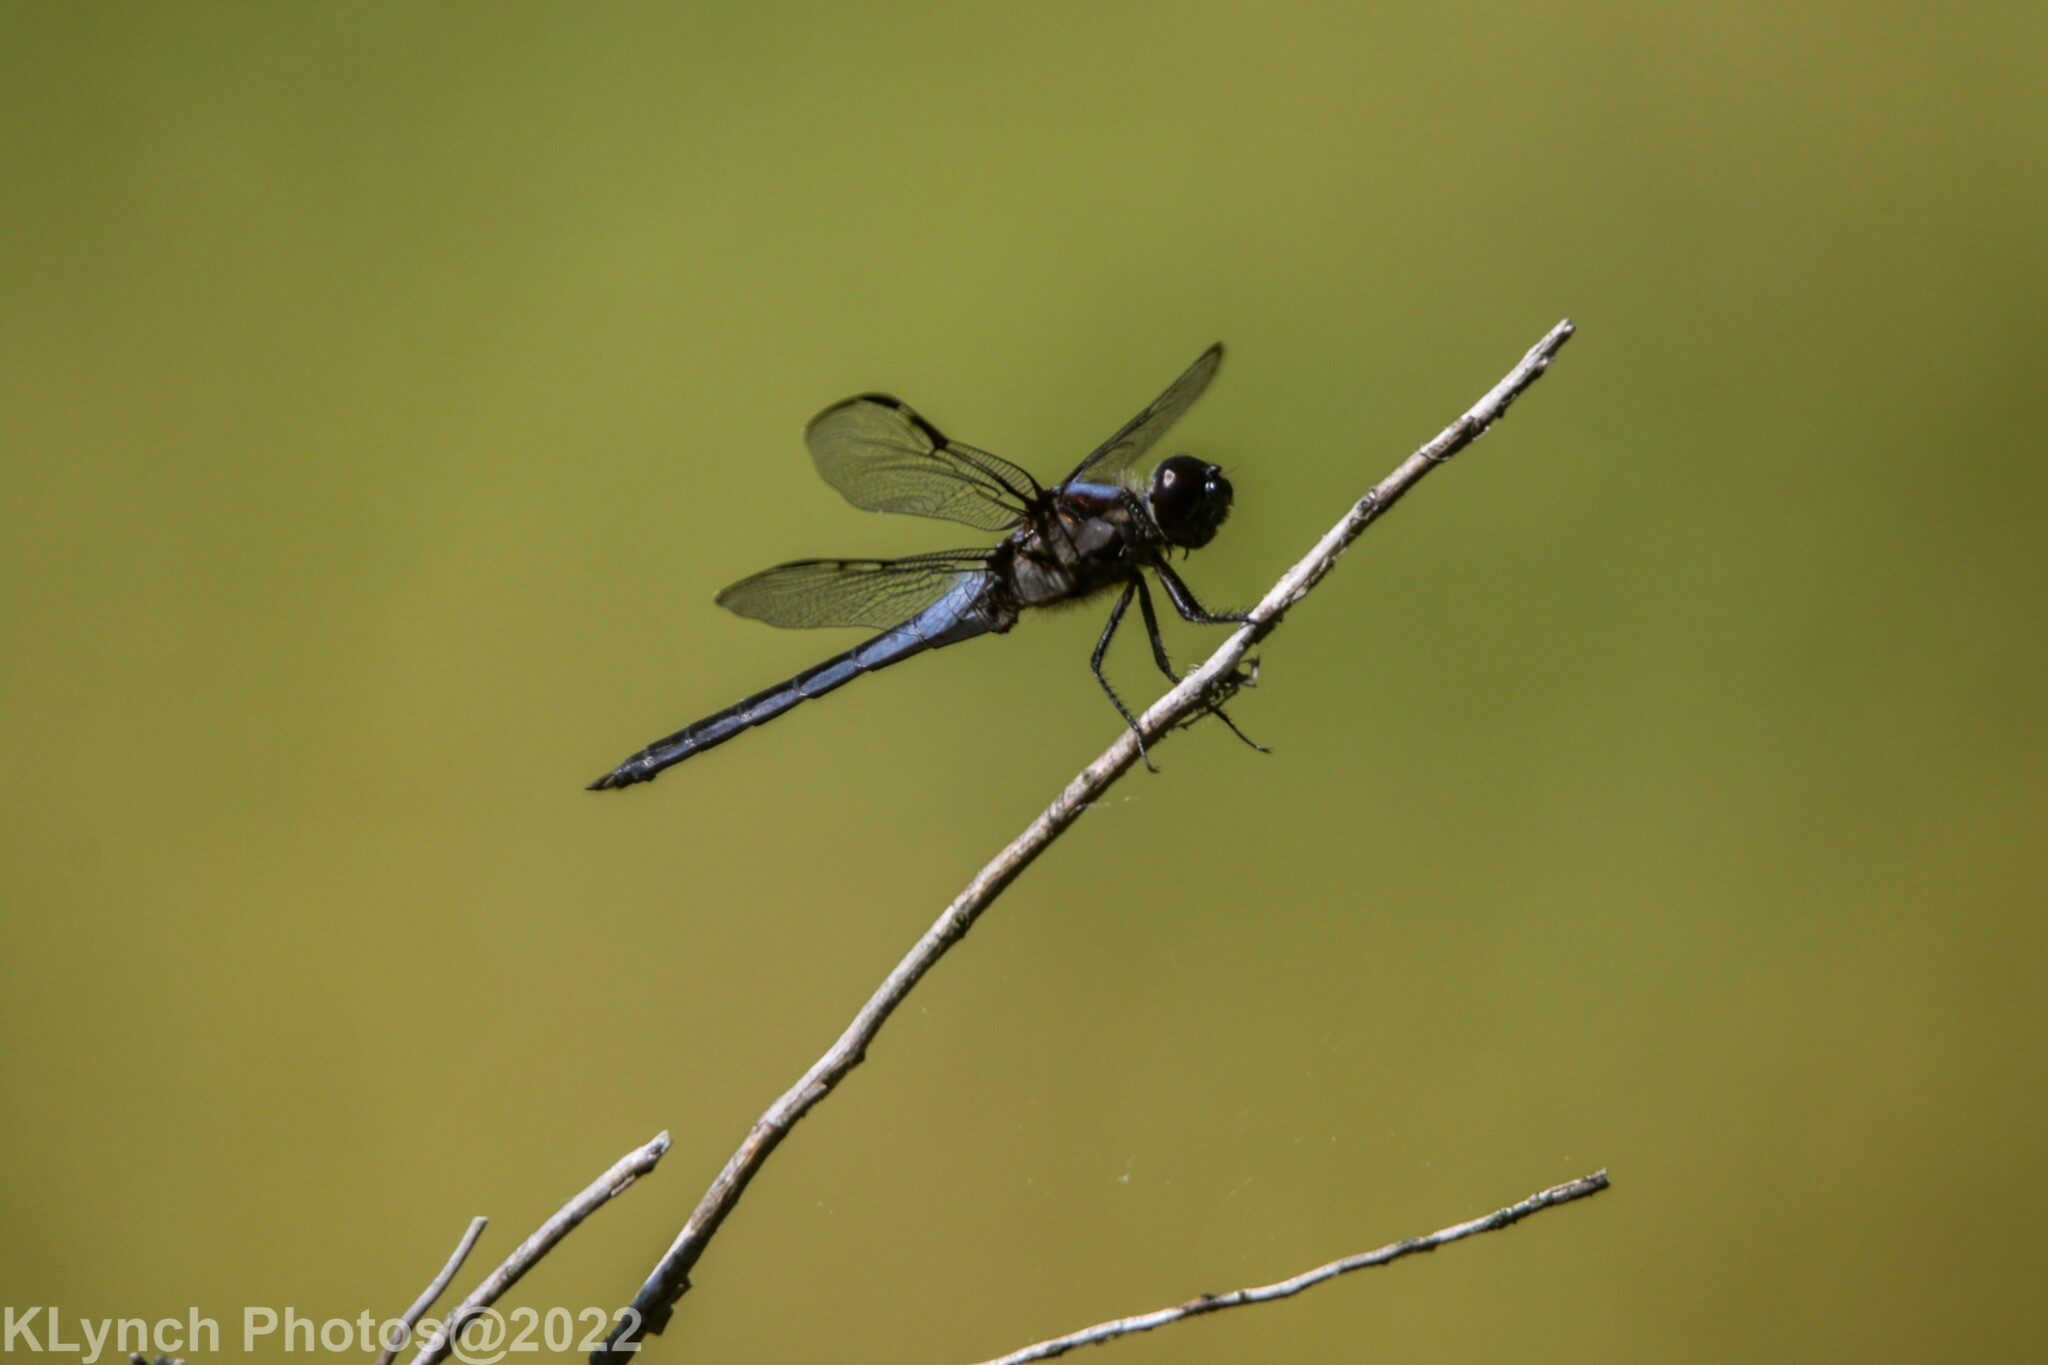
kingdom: Animalia
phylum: Arthropoda
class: Insecta
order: Odonata
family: Libellulidae
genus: Libellula
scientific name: Libellula incesta
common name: Slaty skimmer
